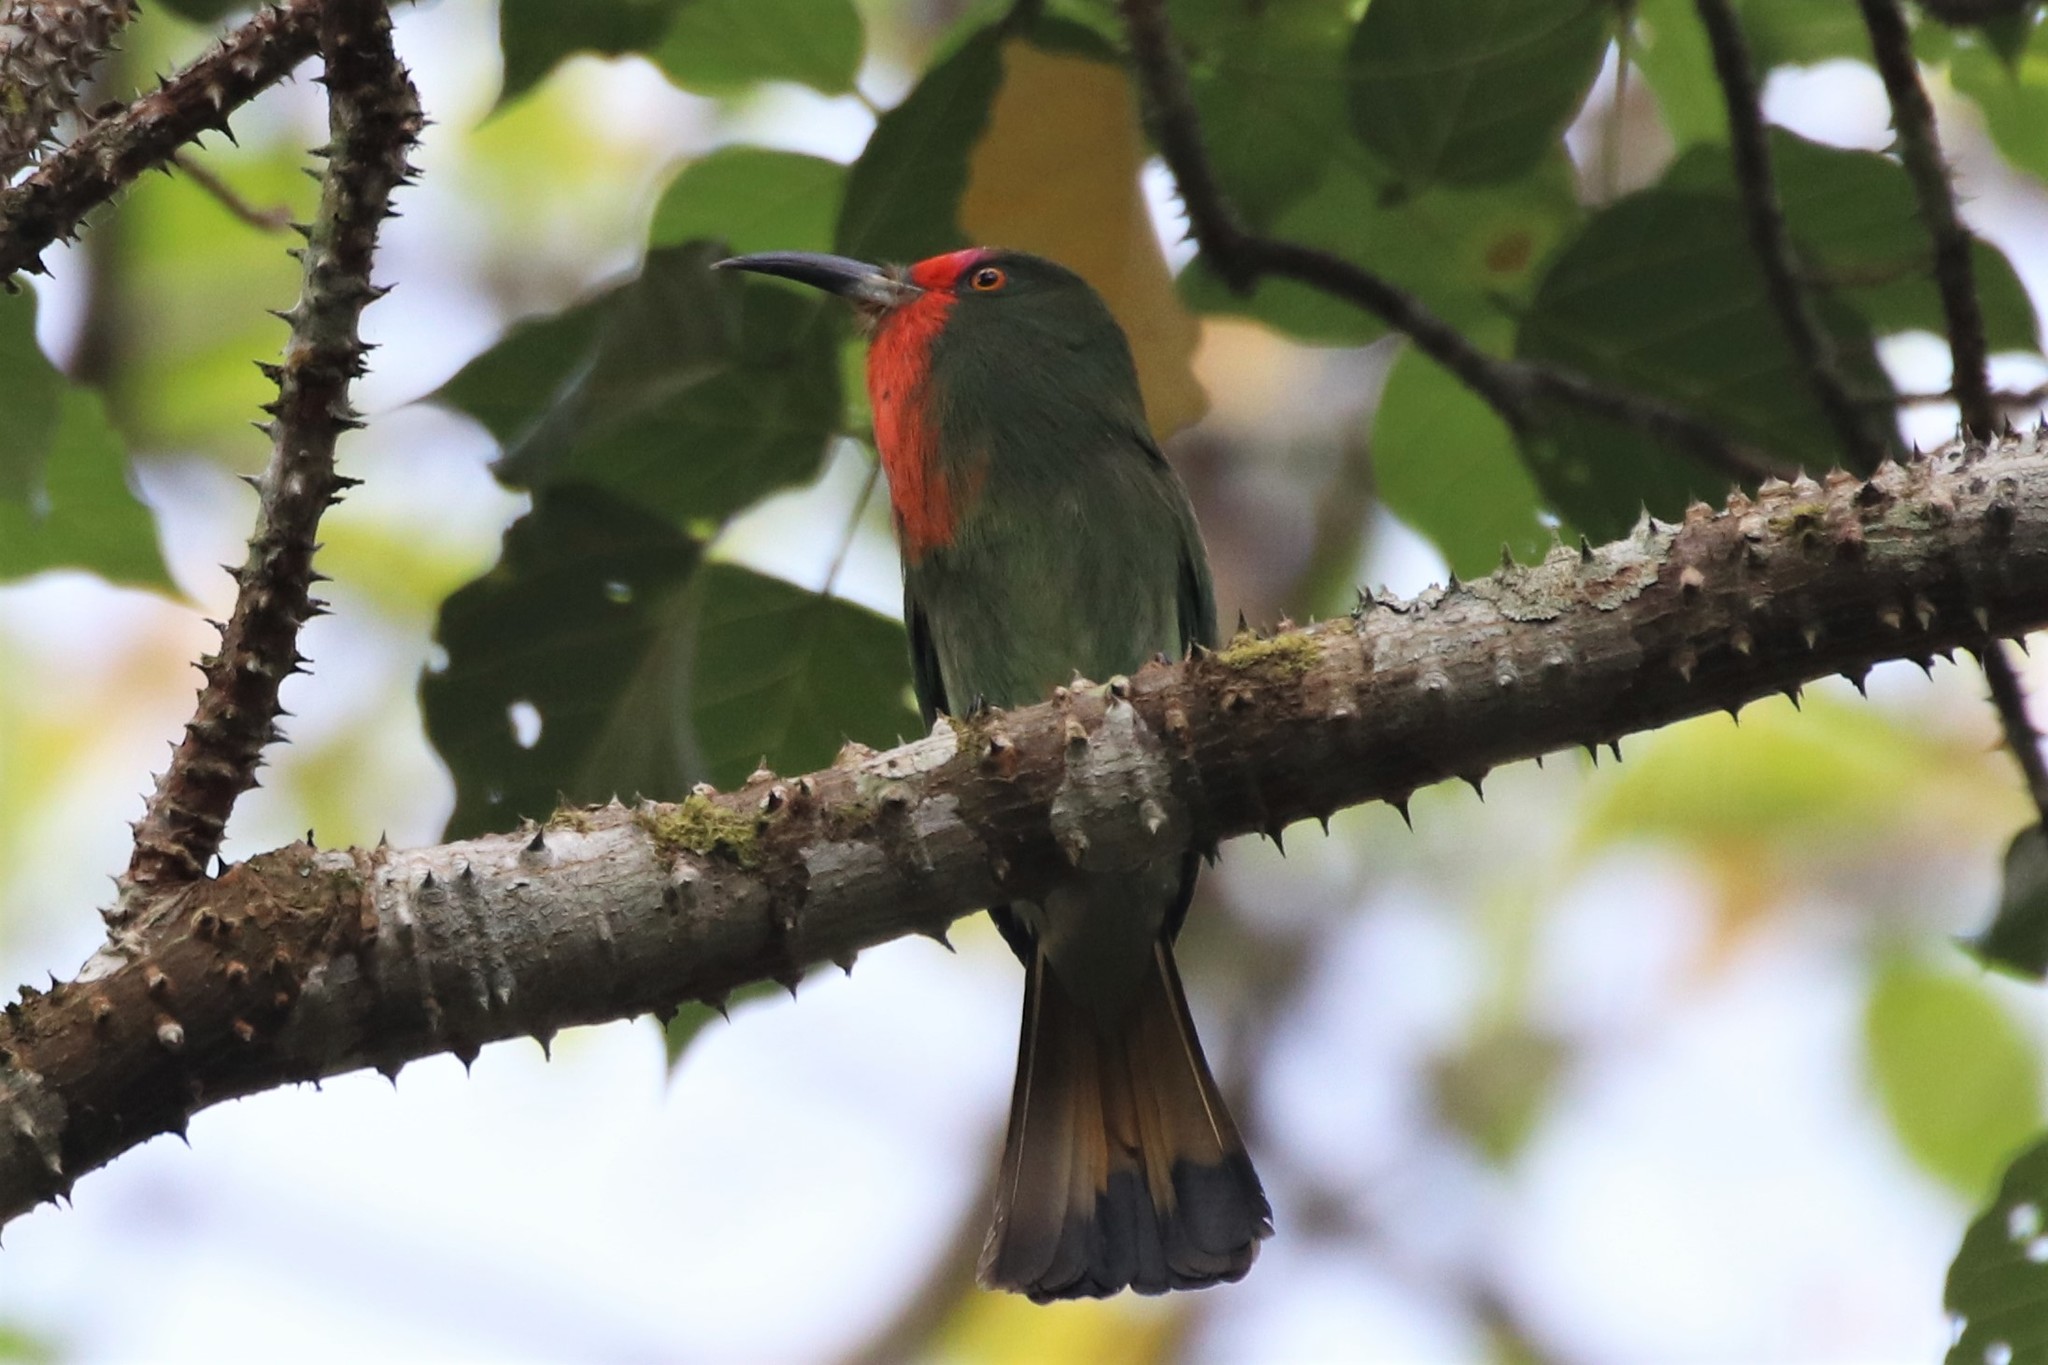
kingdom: Animalia
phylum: Chordata
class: Aves
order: Coraciiformes
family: Meropidae
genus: Nyctyornis
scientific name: Nyctyornis amictus
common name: Red-bearded bee-eater
